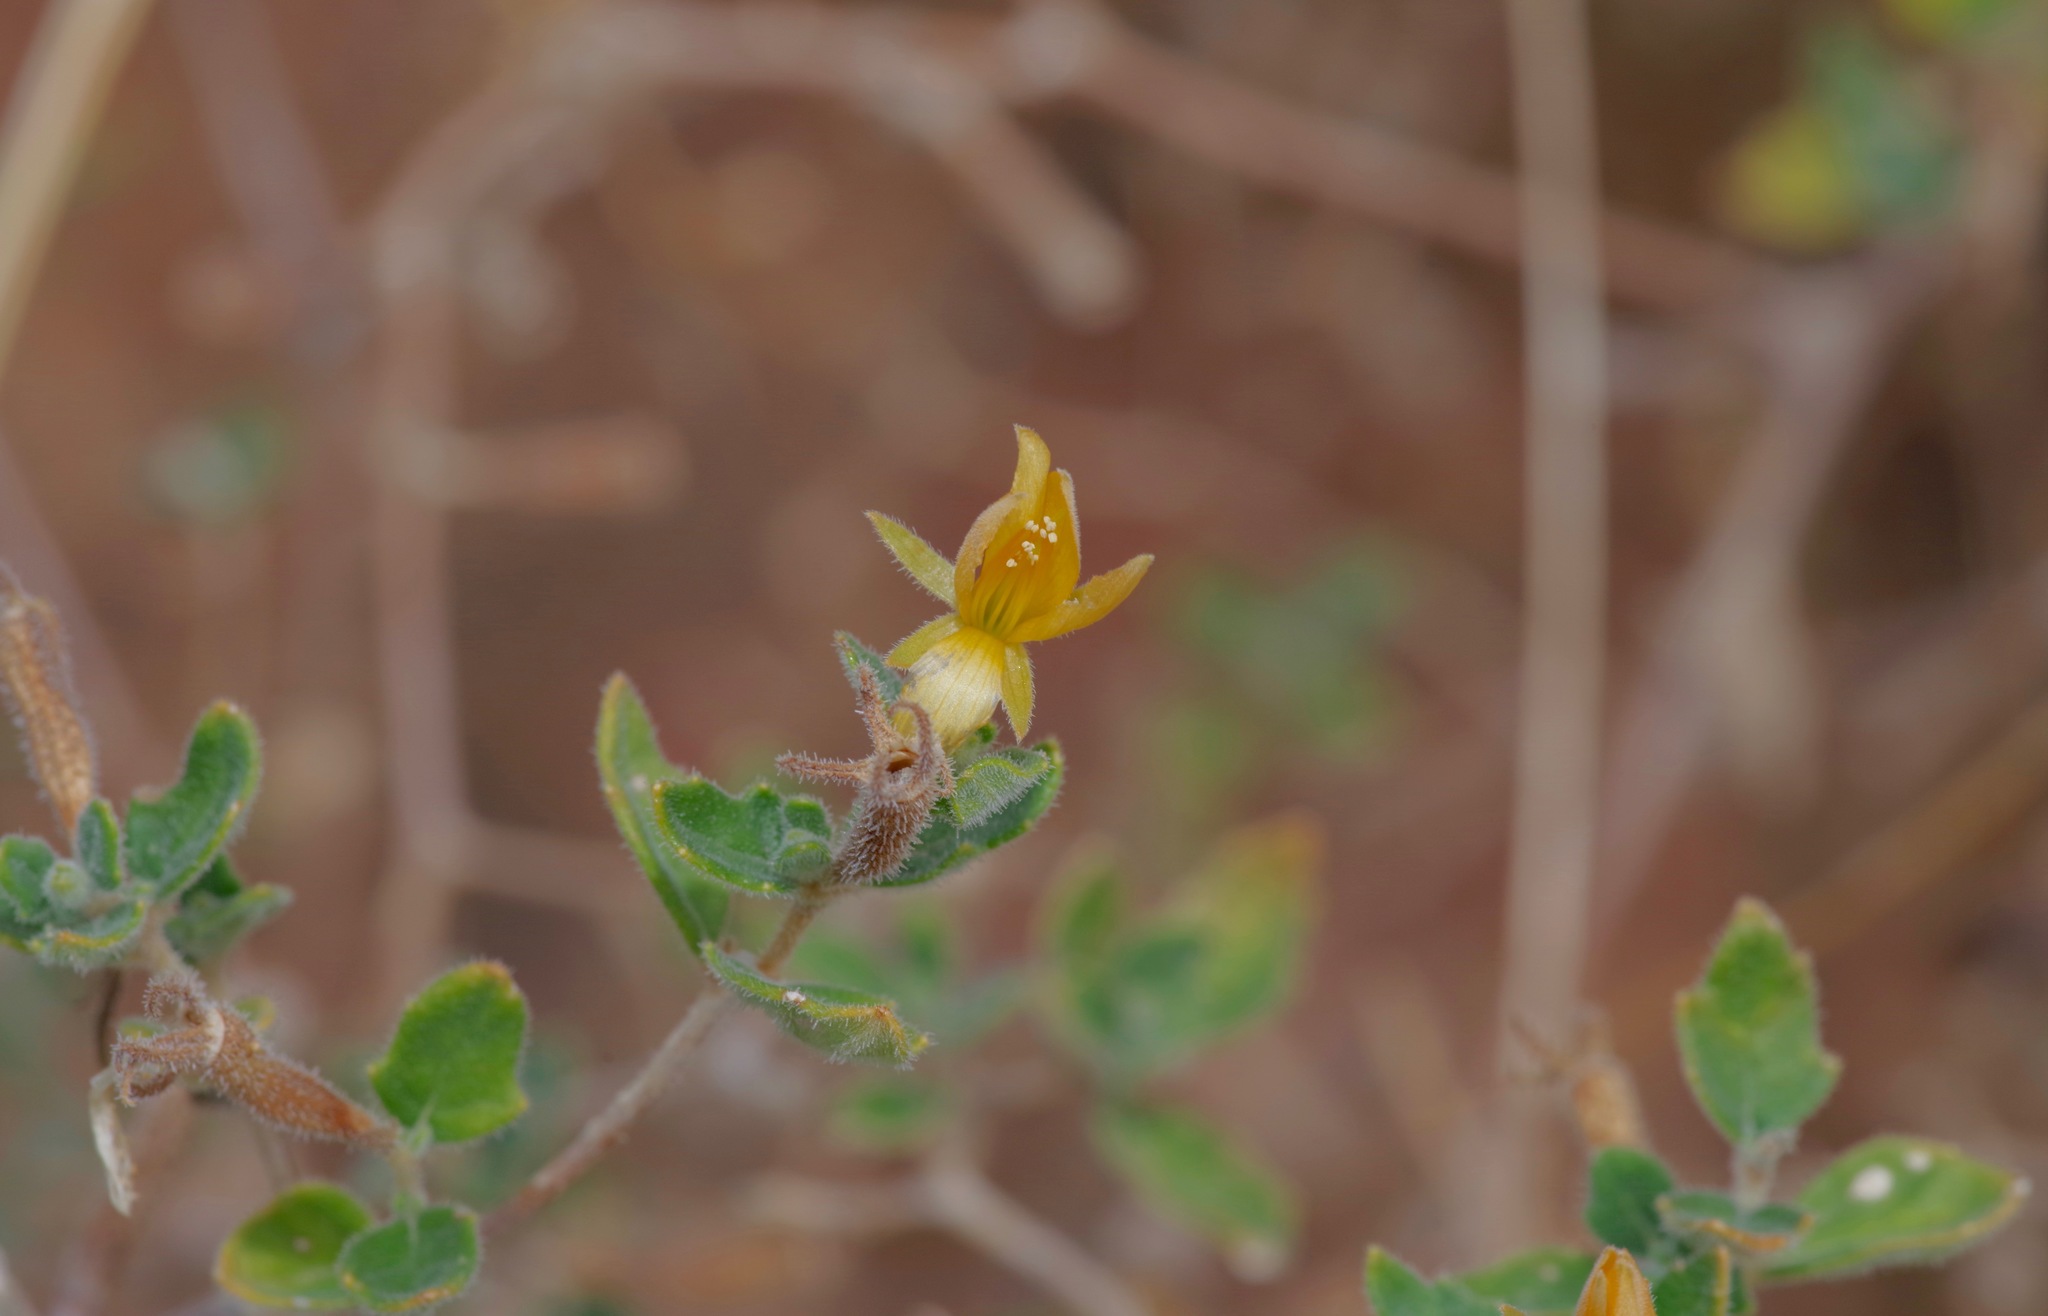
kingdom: Plantae
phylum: Tracheophyta
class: Magnoliopsida
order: Cornales
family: Loasaceae
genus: Mentzelia
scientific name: Mentzelia oligosperma
